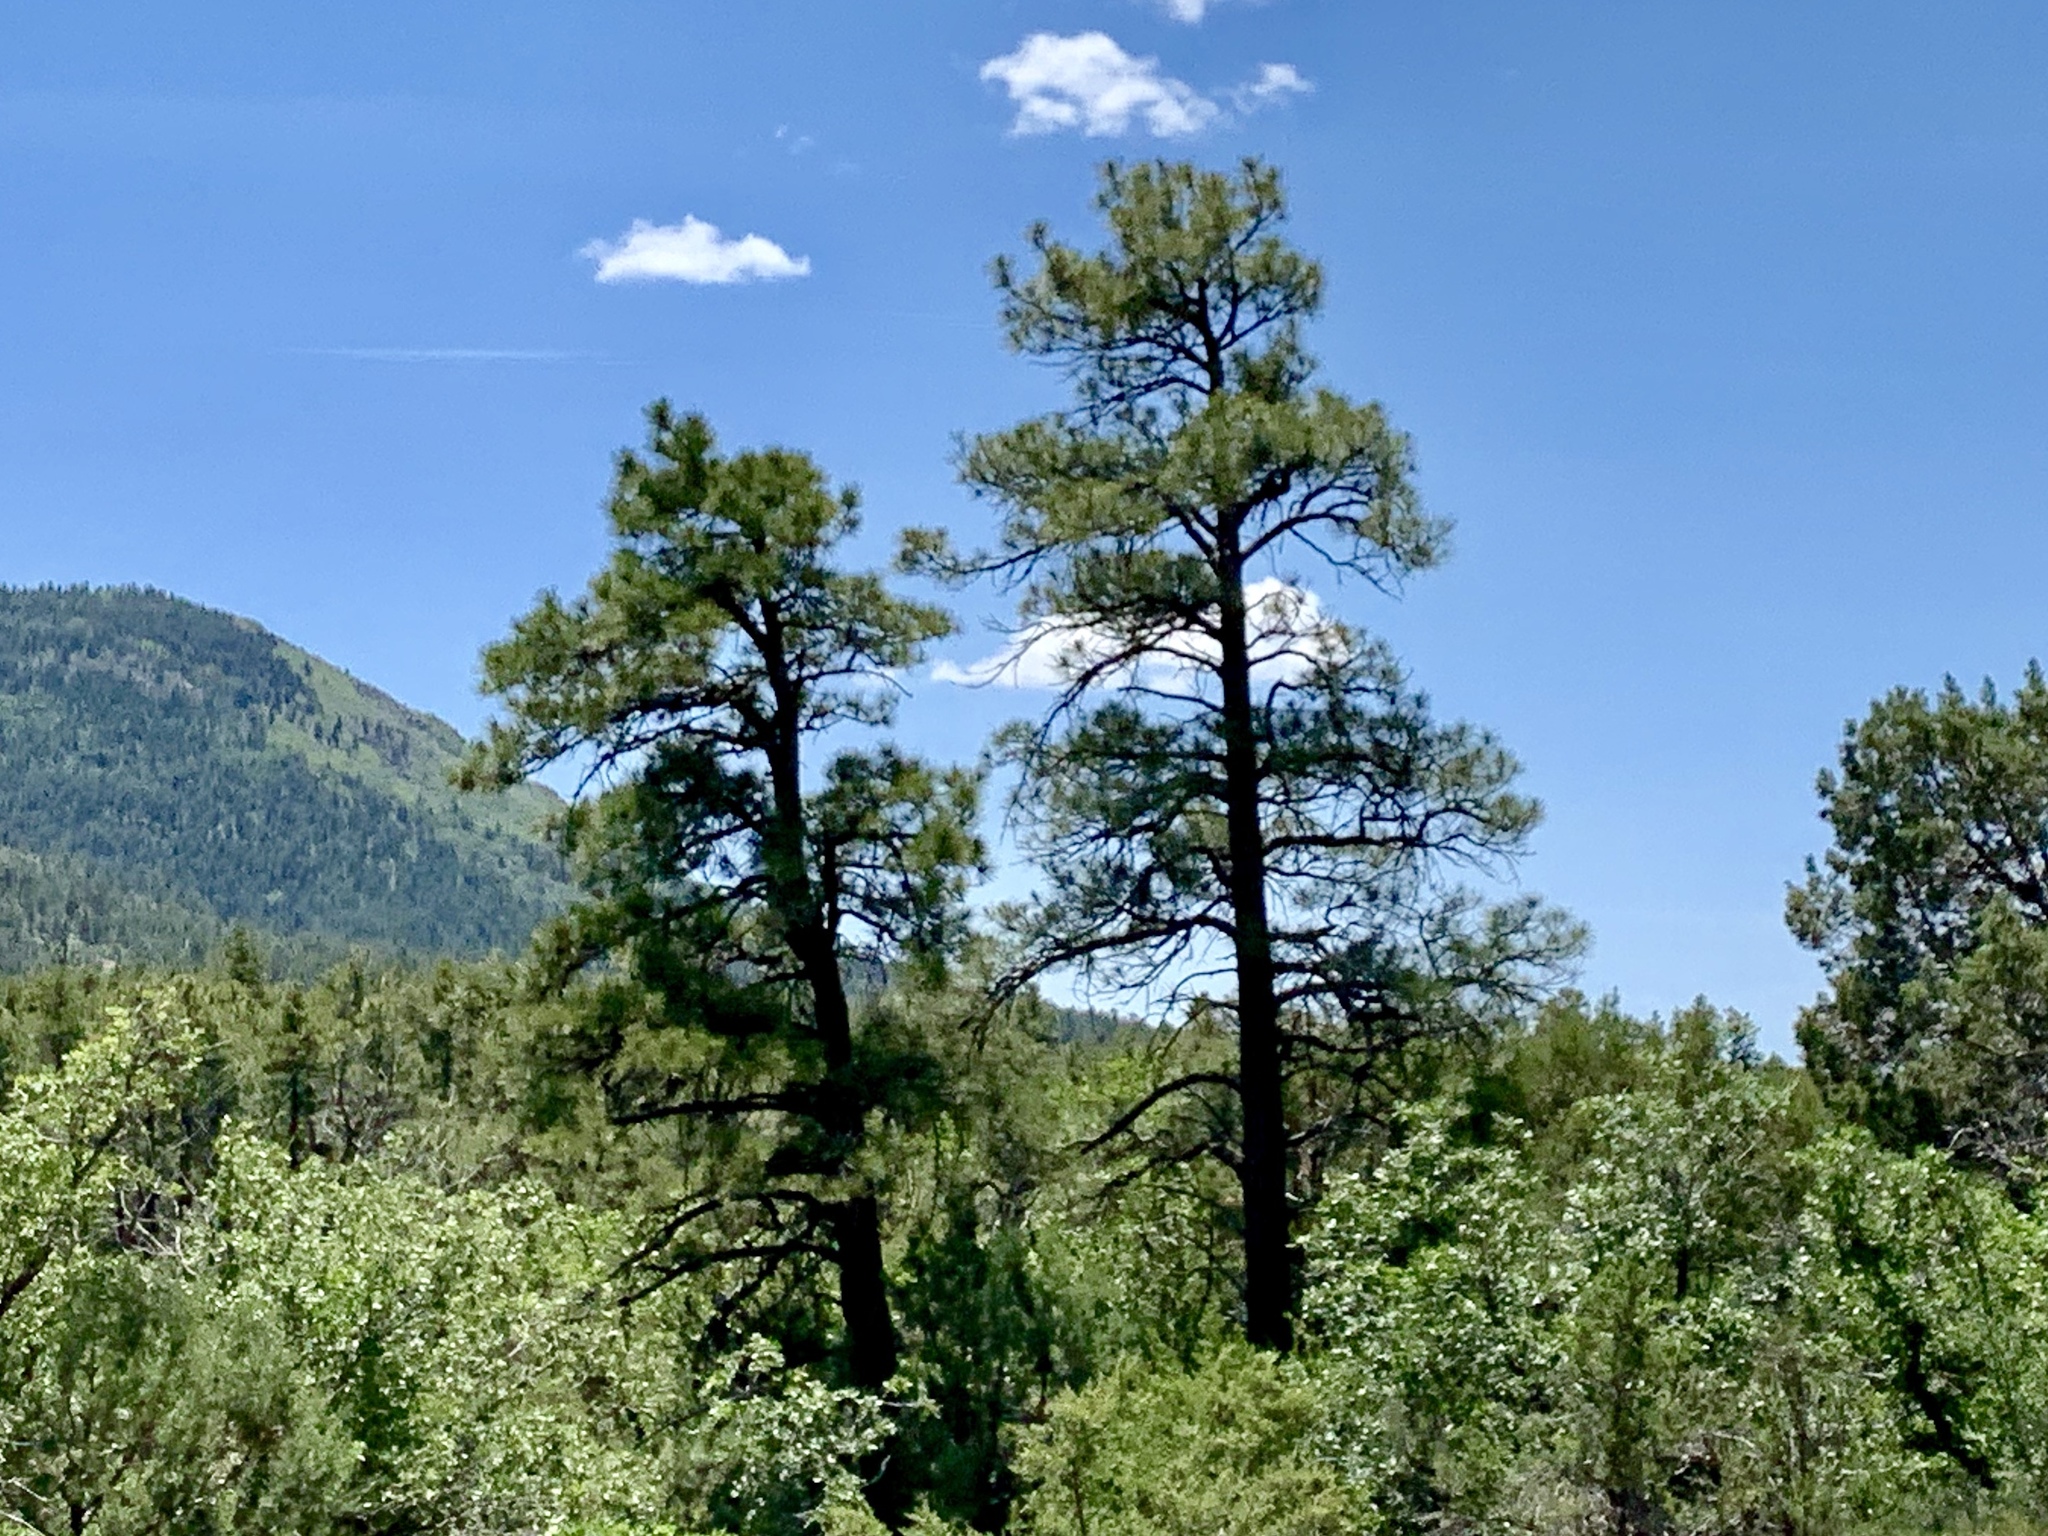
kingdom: Plantae
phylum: Tracheophyta
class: Pinopsida
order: Pinales
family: Pinaceae
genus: Pinus
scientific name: Pinus ponderosa
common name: Western yellow-pine
